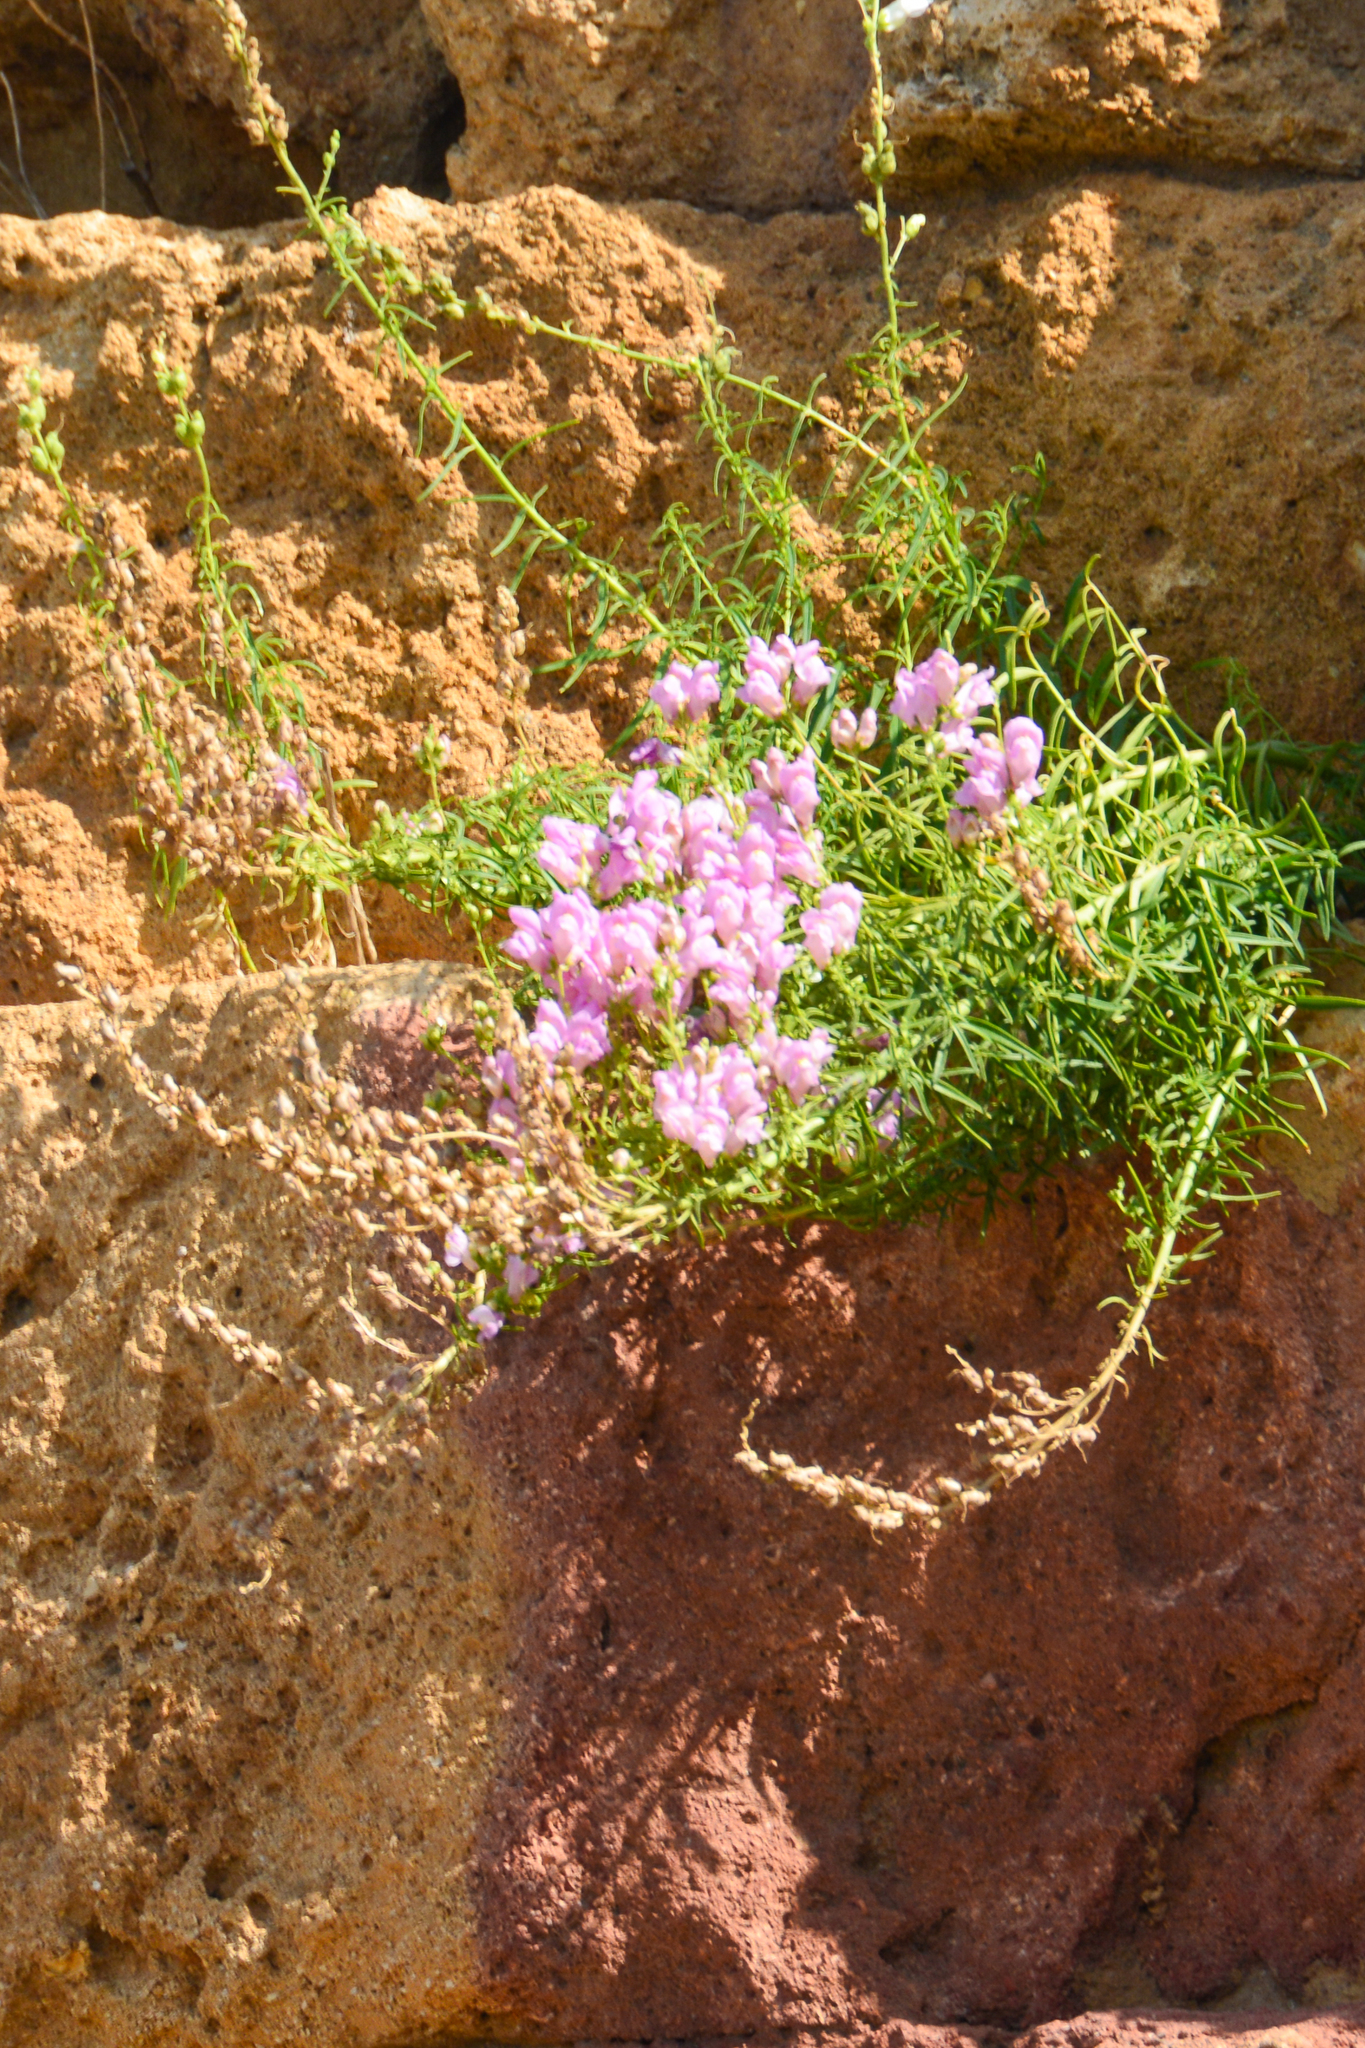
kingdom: Plantae
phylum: Tracheophyta
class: Magnoliopsida
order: Lamiales
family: Plantaginaceae
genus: Antirrhinum
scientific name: Antirrhinum tortuosum
